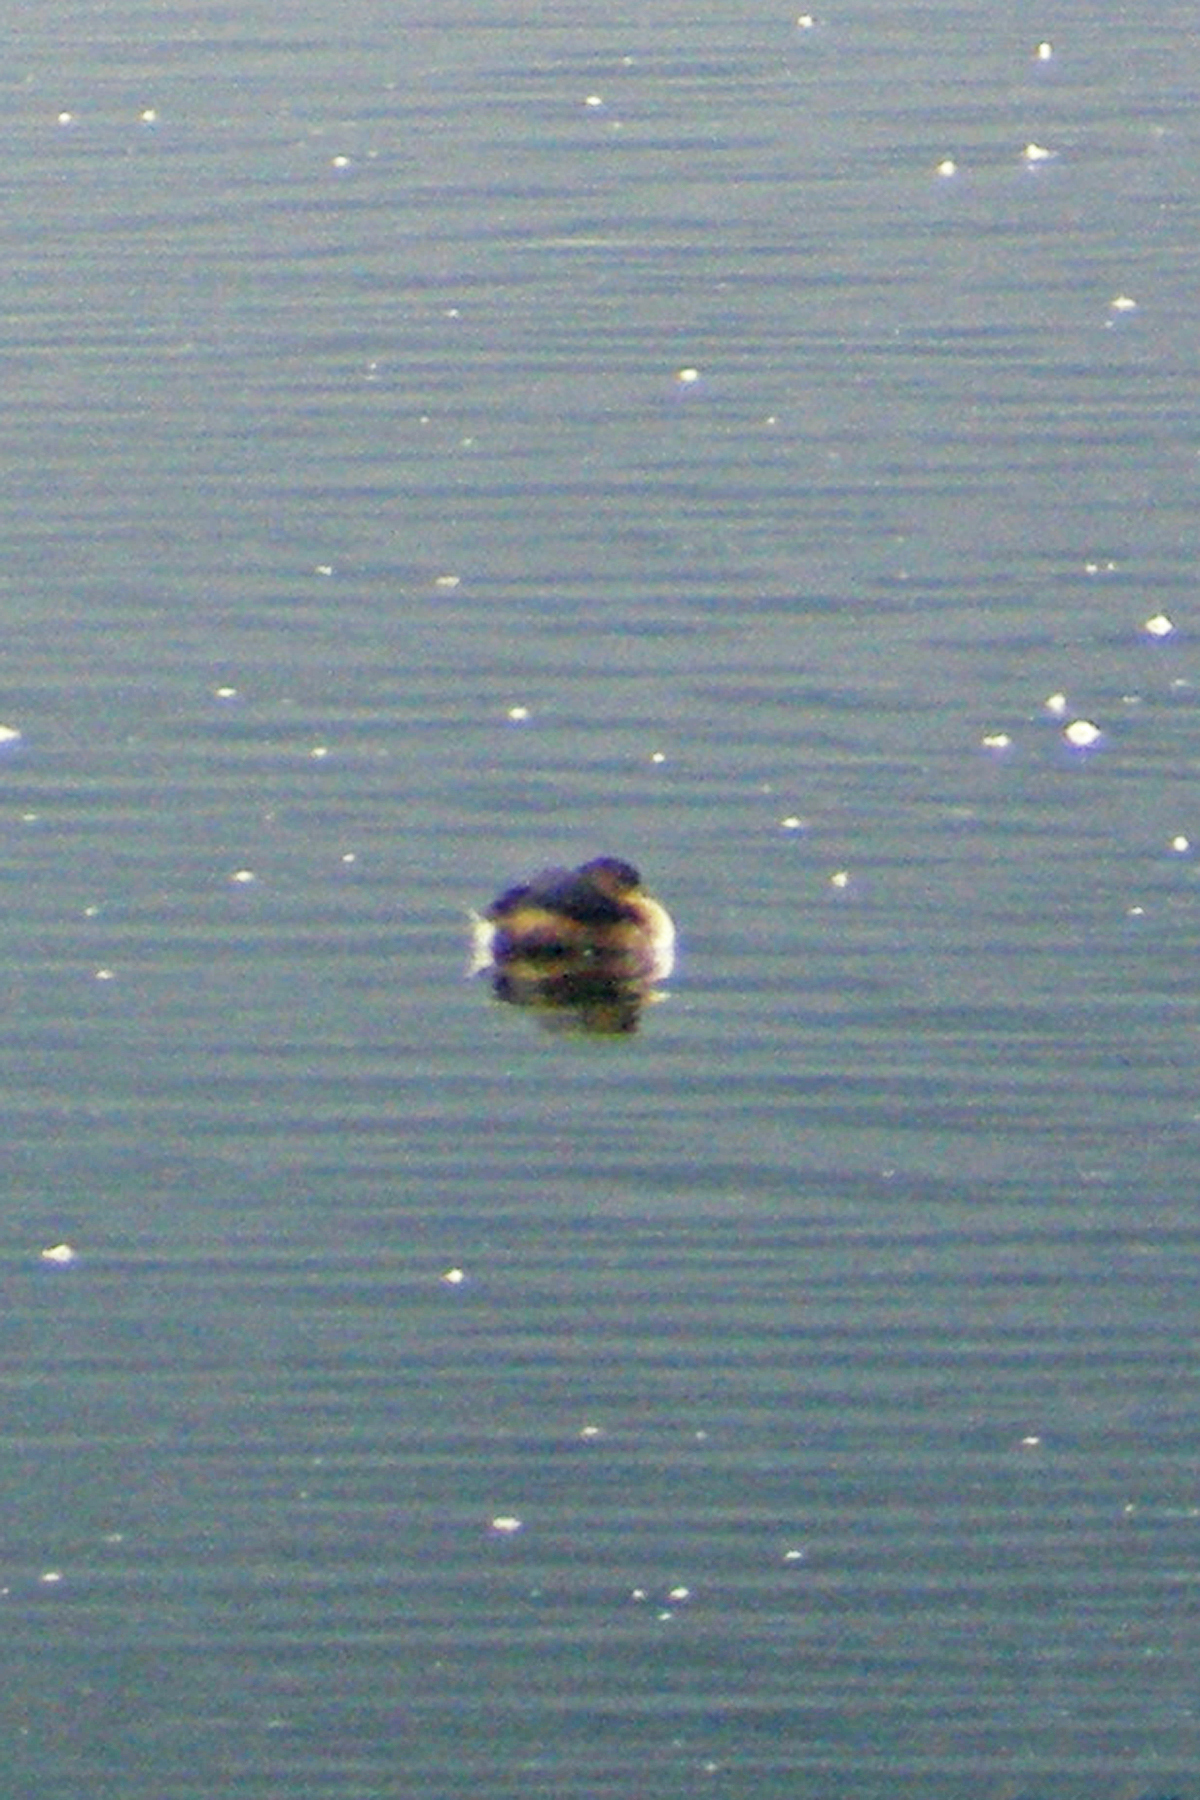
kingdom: Animalia
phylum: Chordata
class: Aves
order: Podicipediformes
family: Podicipedidae
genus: Podilymbus
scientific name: Podilymbus podiceps
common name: Pied-billed grebe
